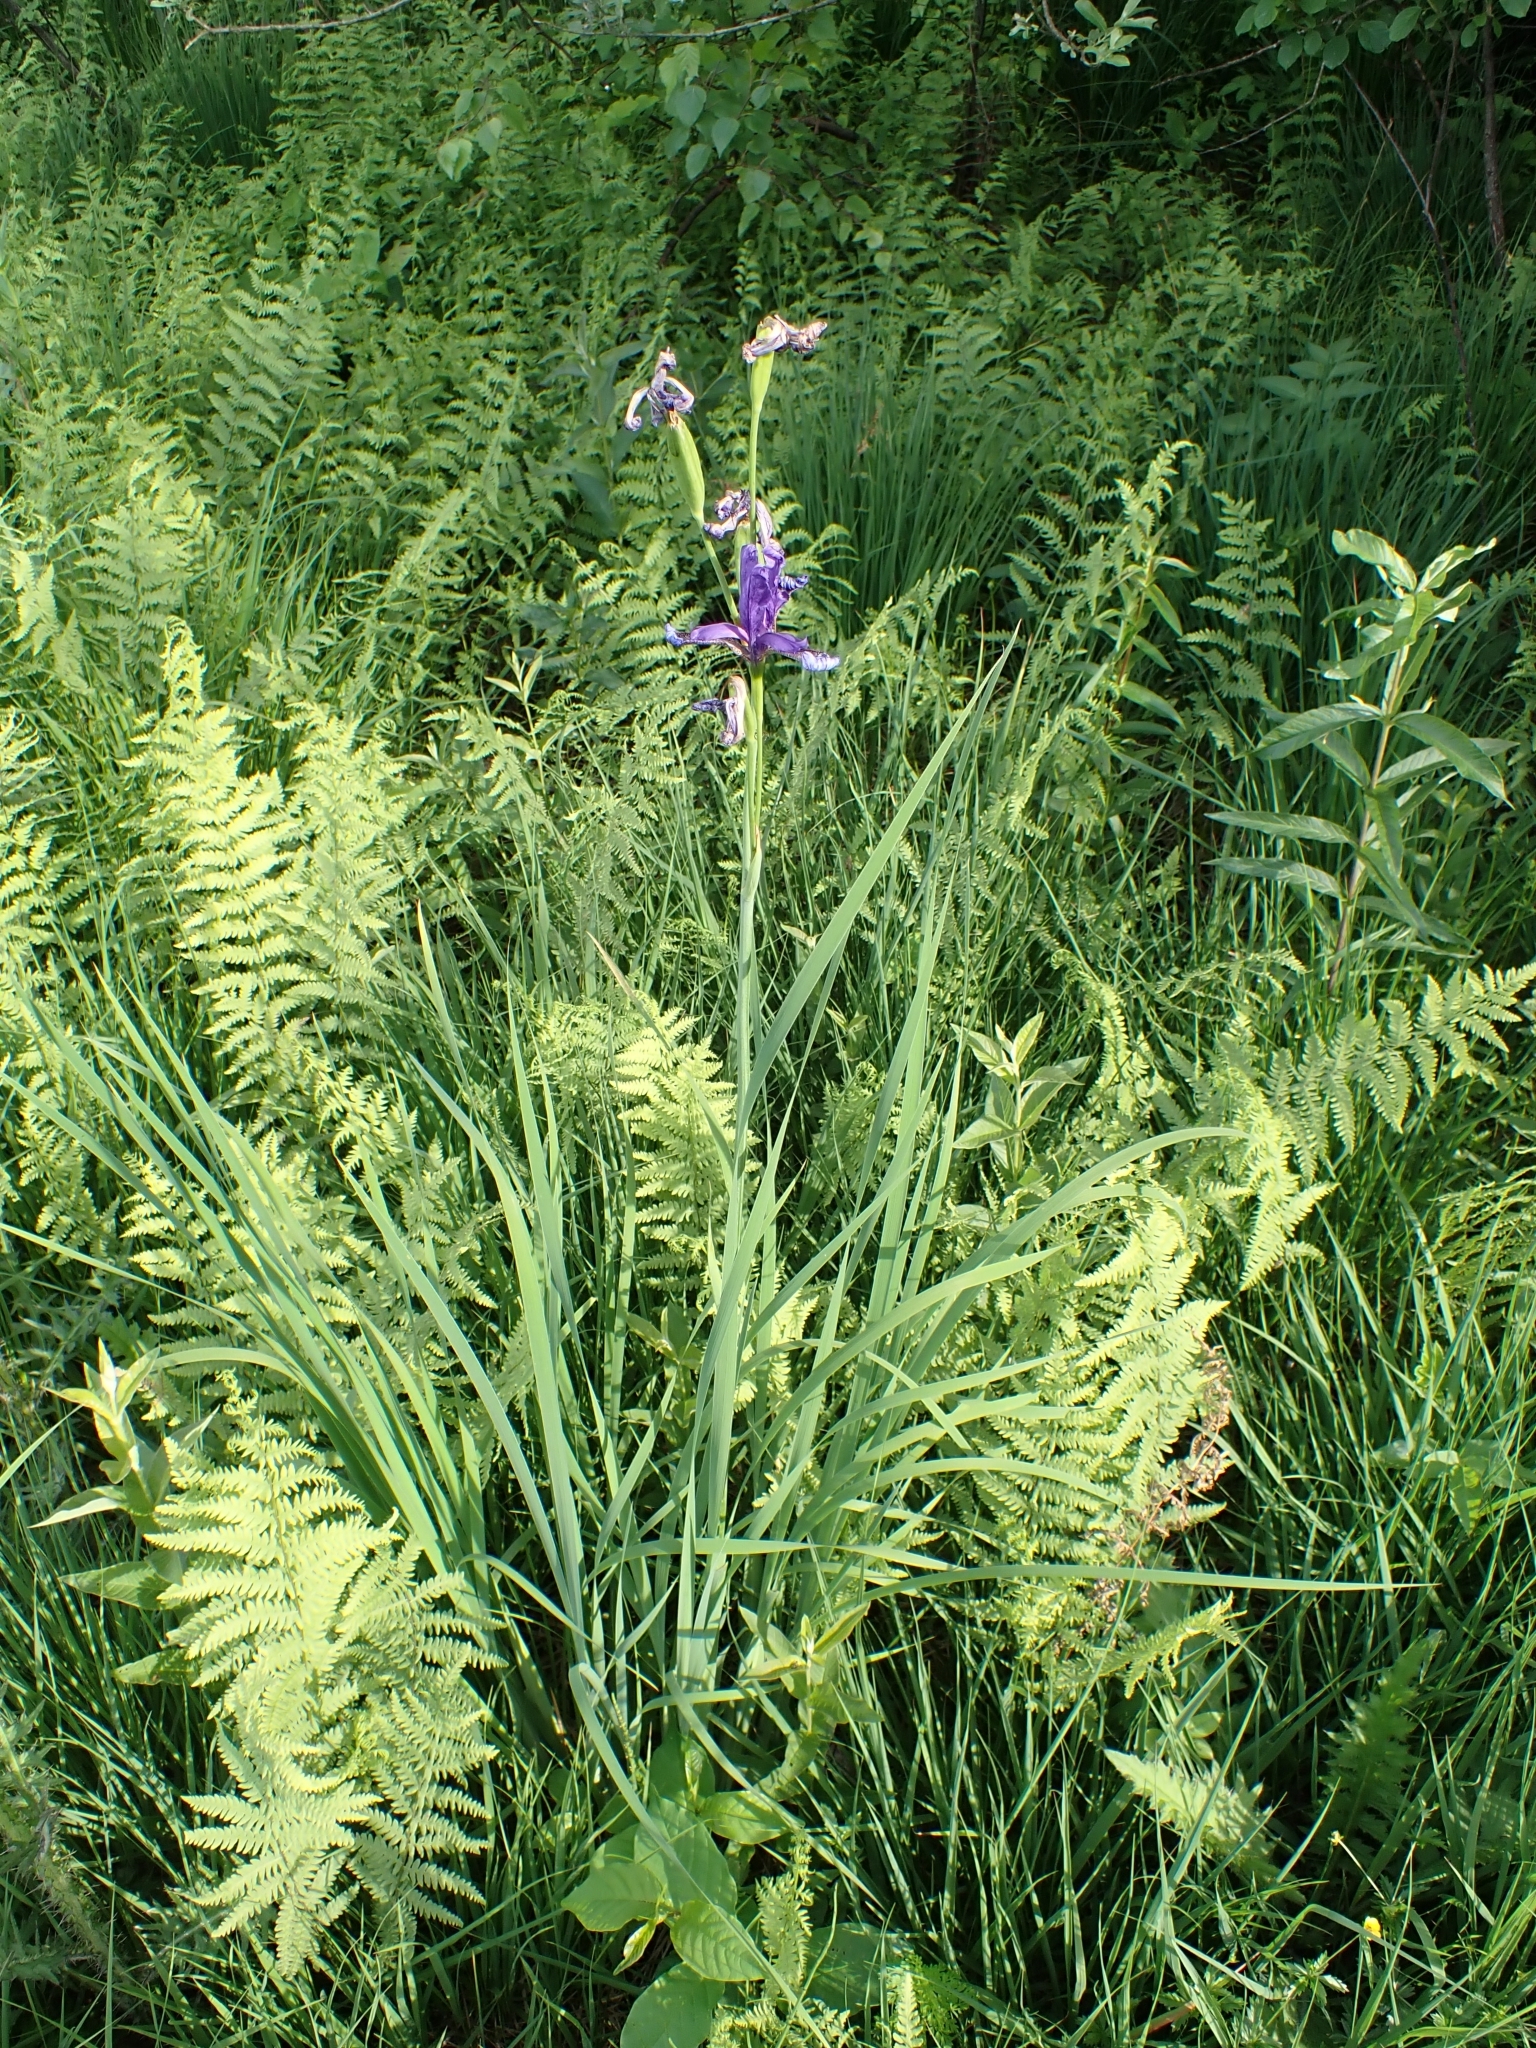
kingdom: Plantae
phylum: Tracheophyta
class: Liliopsida
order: Asparagales
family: Iridaceae
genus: Iris
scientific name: Iris sibirica
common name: Siberian iris
